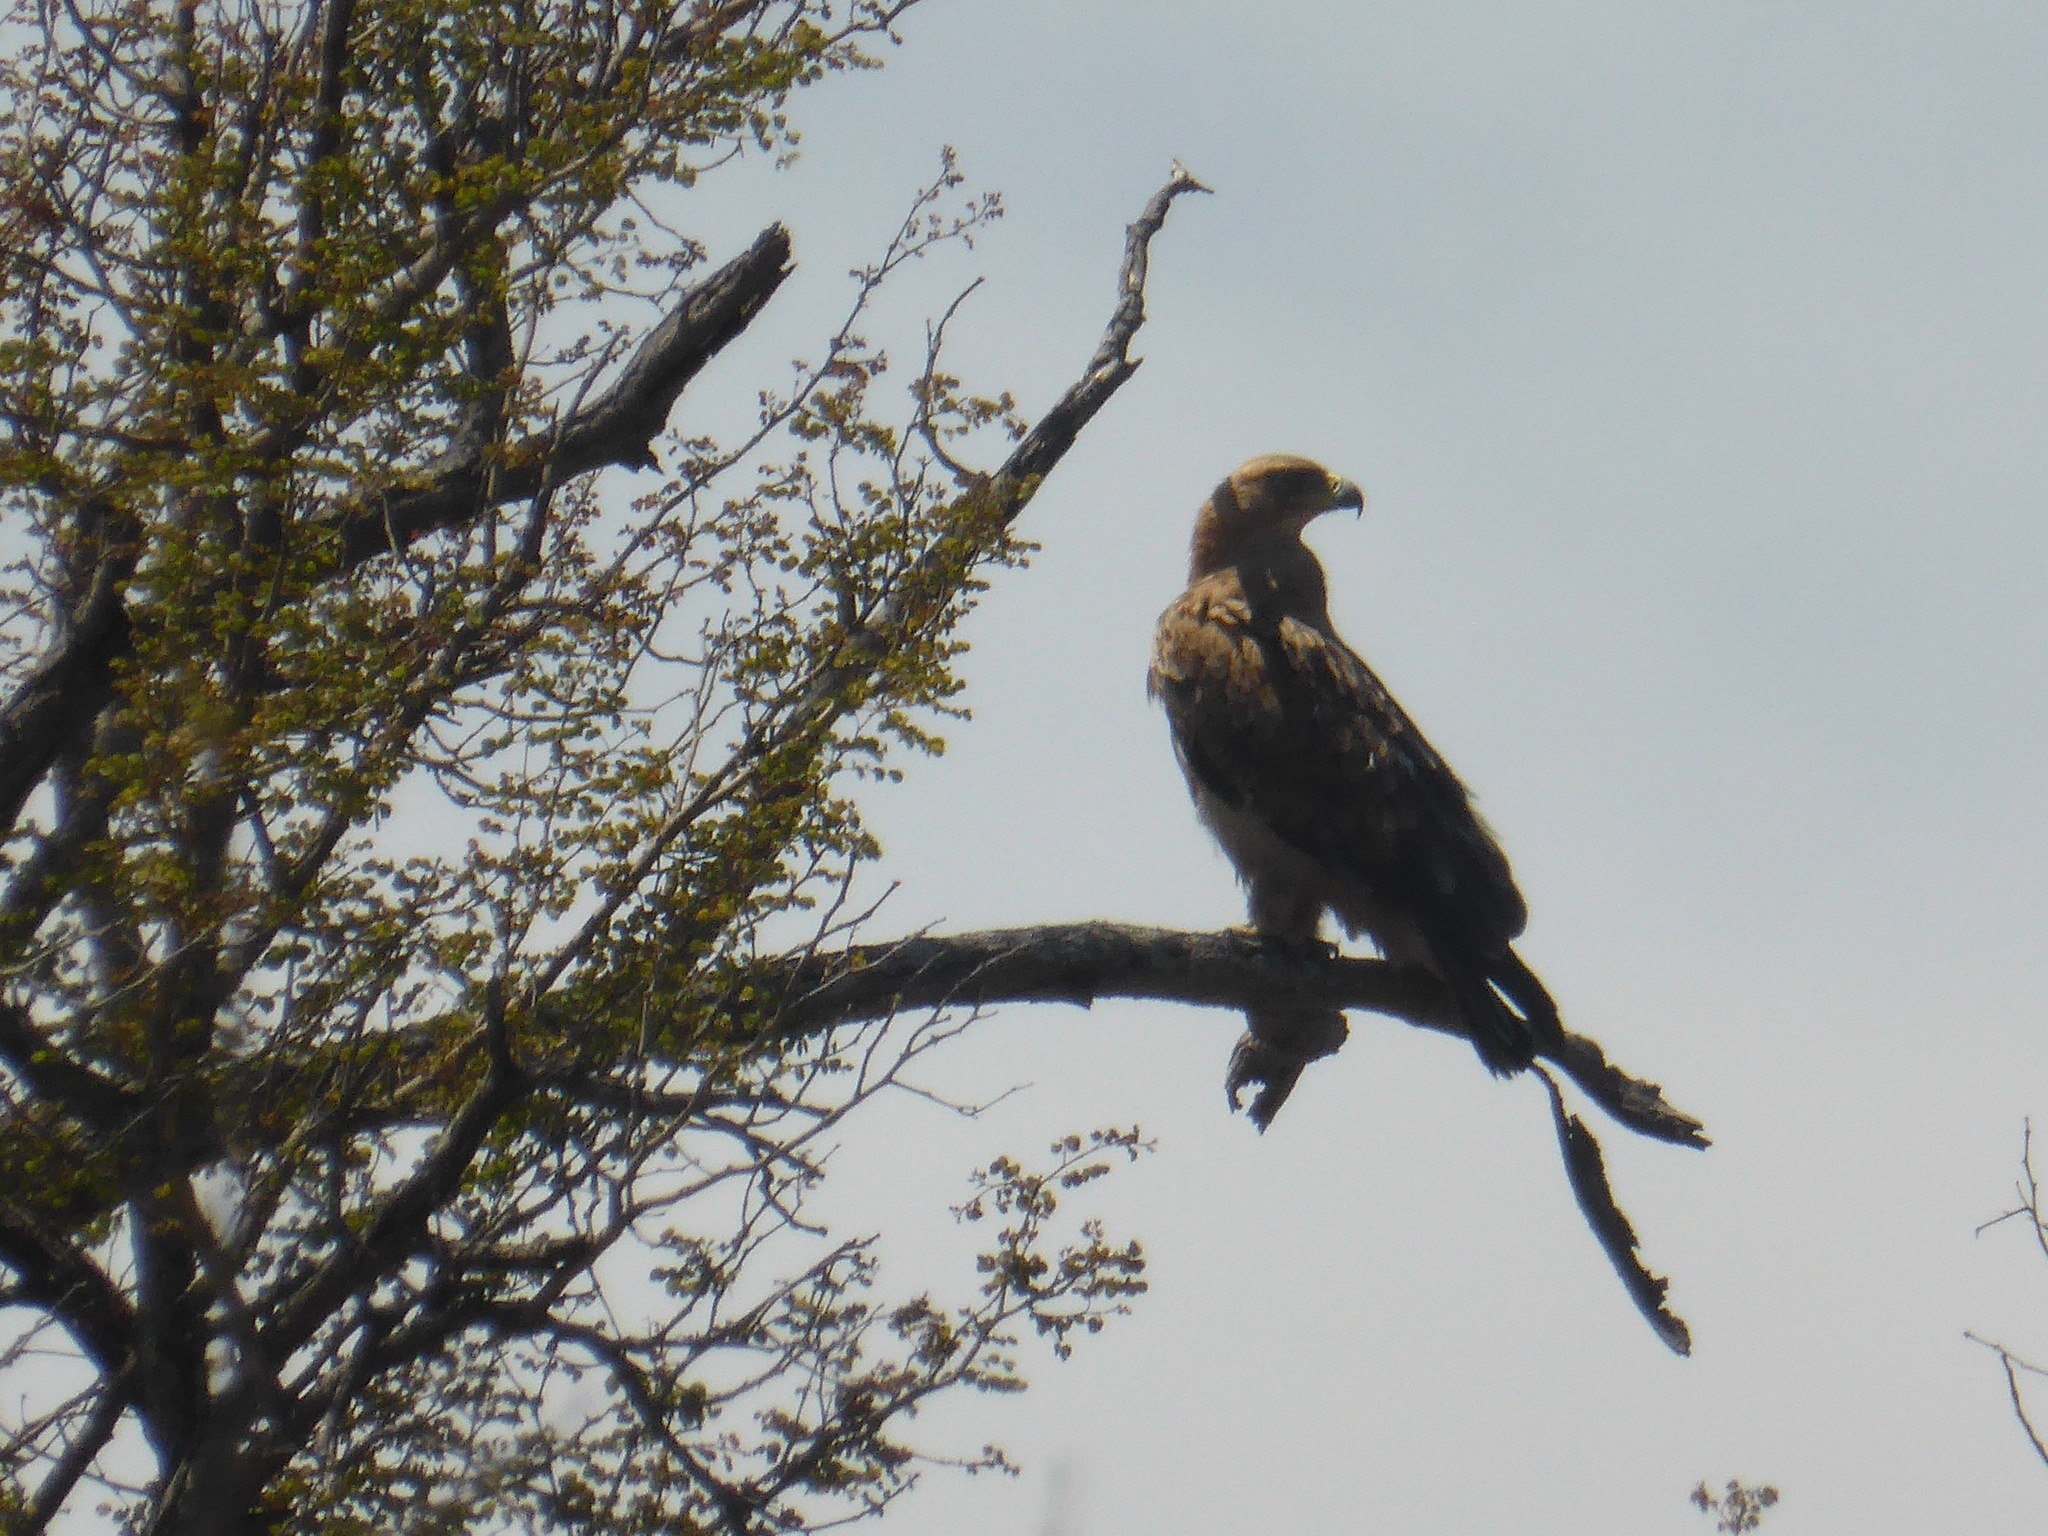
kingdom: Animalia
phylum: Chordata
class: Aves
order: Accipitriformes
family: Accipitridae
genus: Aquila
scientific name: Aquila rapax
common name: Tawny eagle
